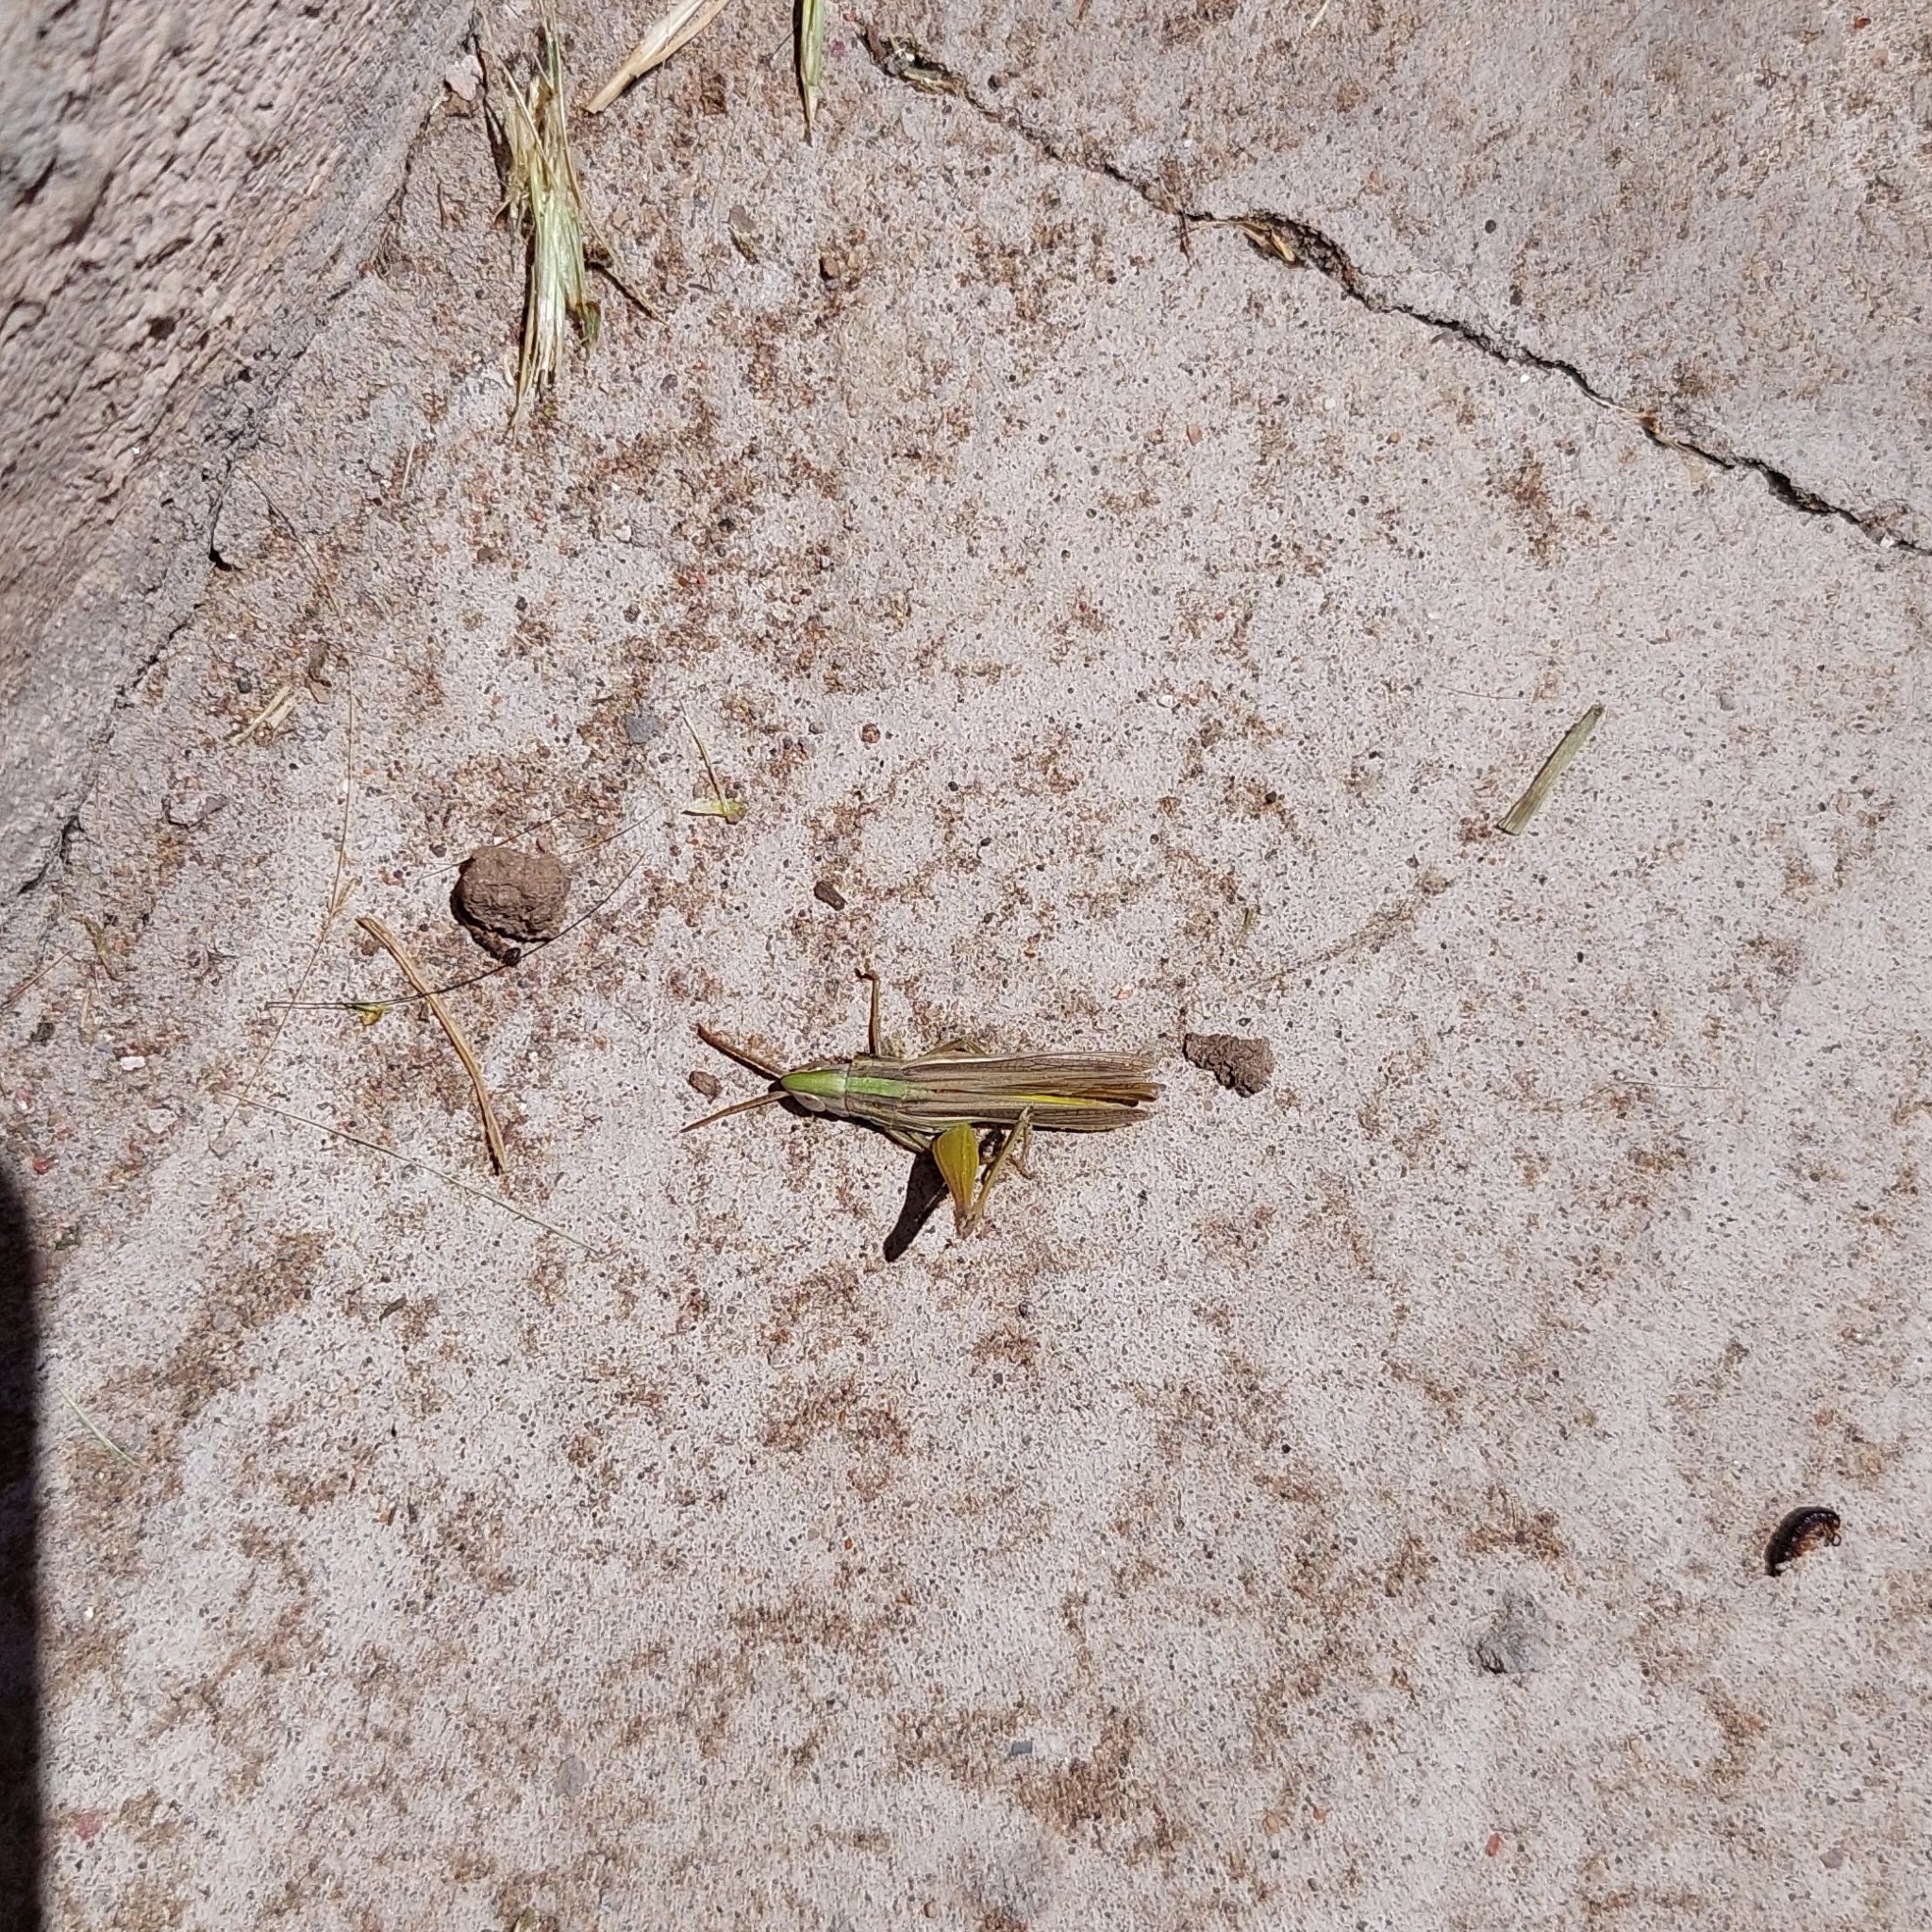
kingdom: Animalia
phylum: Arthropoda
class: Insecta
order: Orthoptera
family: Acrididae
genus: Sinipta
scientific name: Sinipta dalmani
